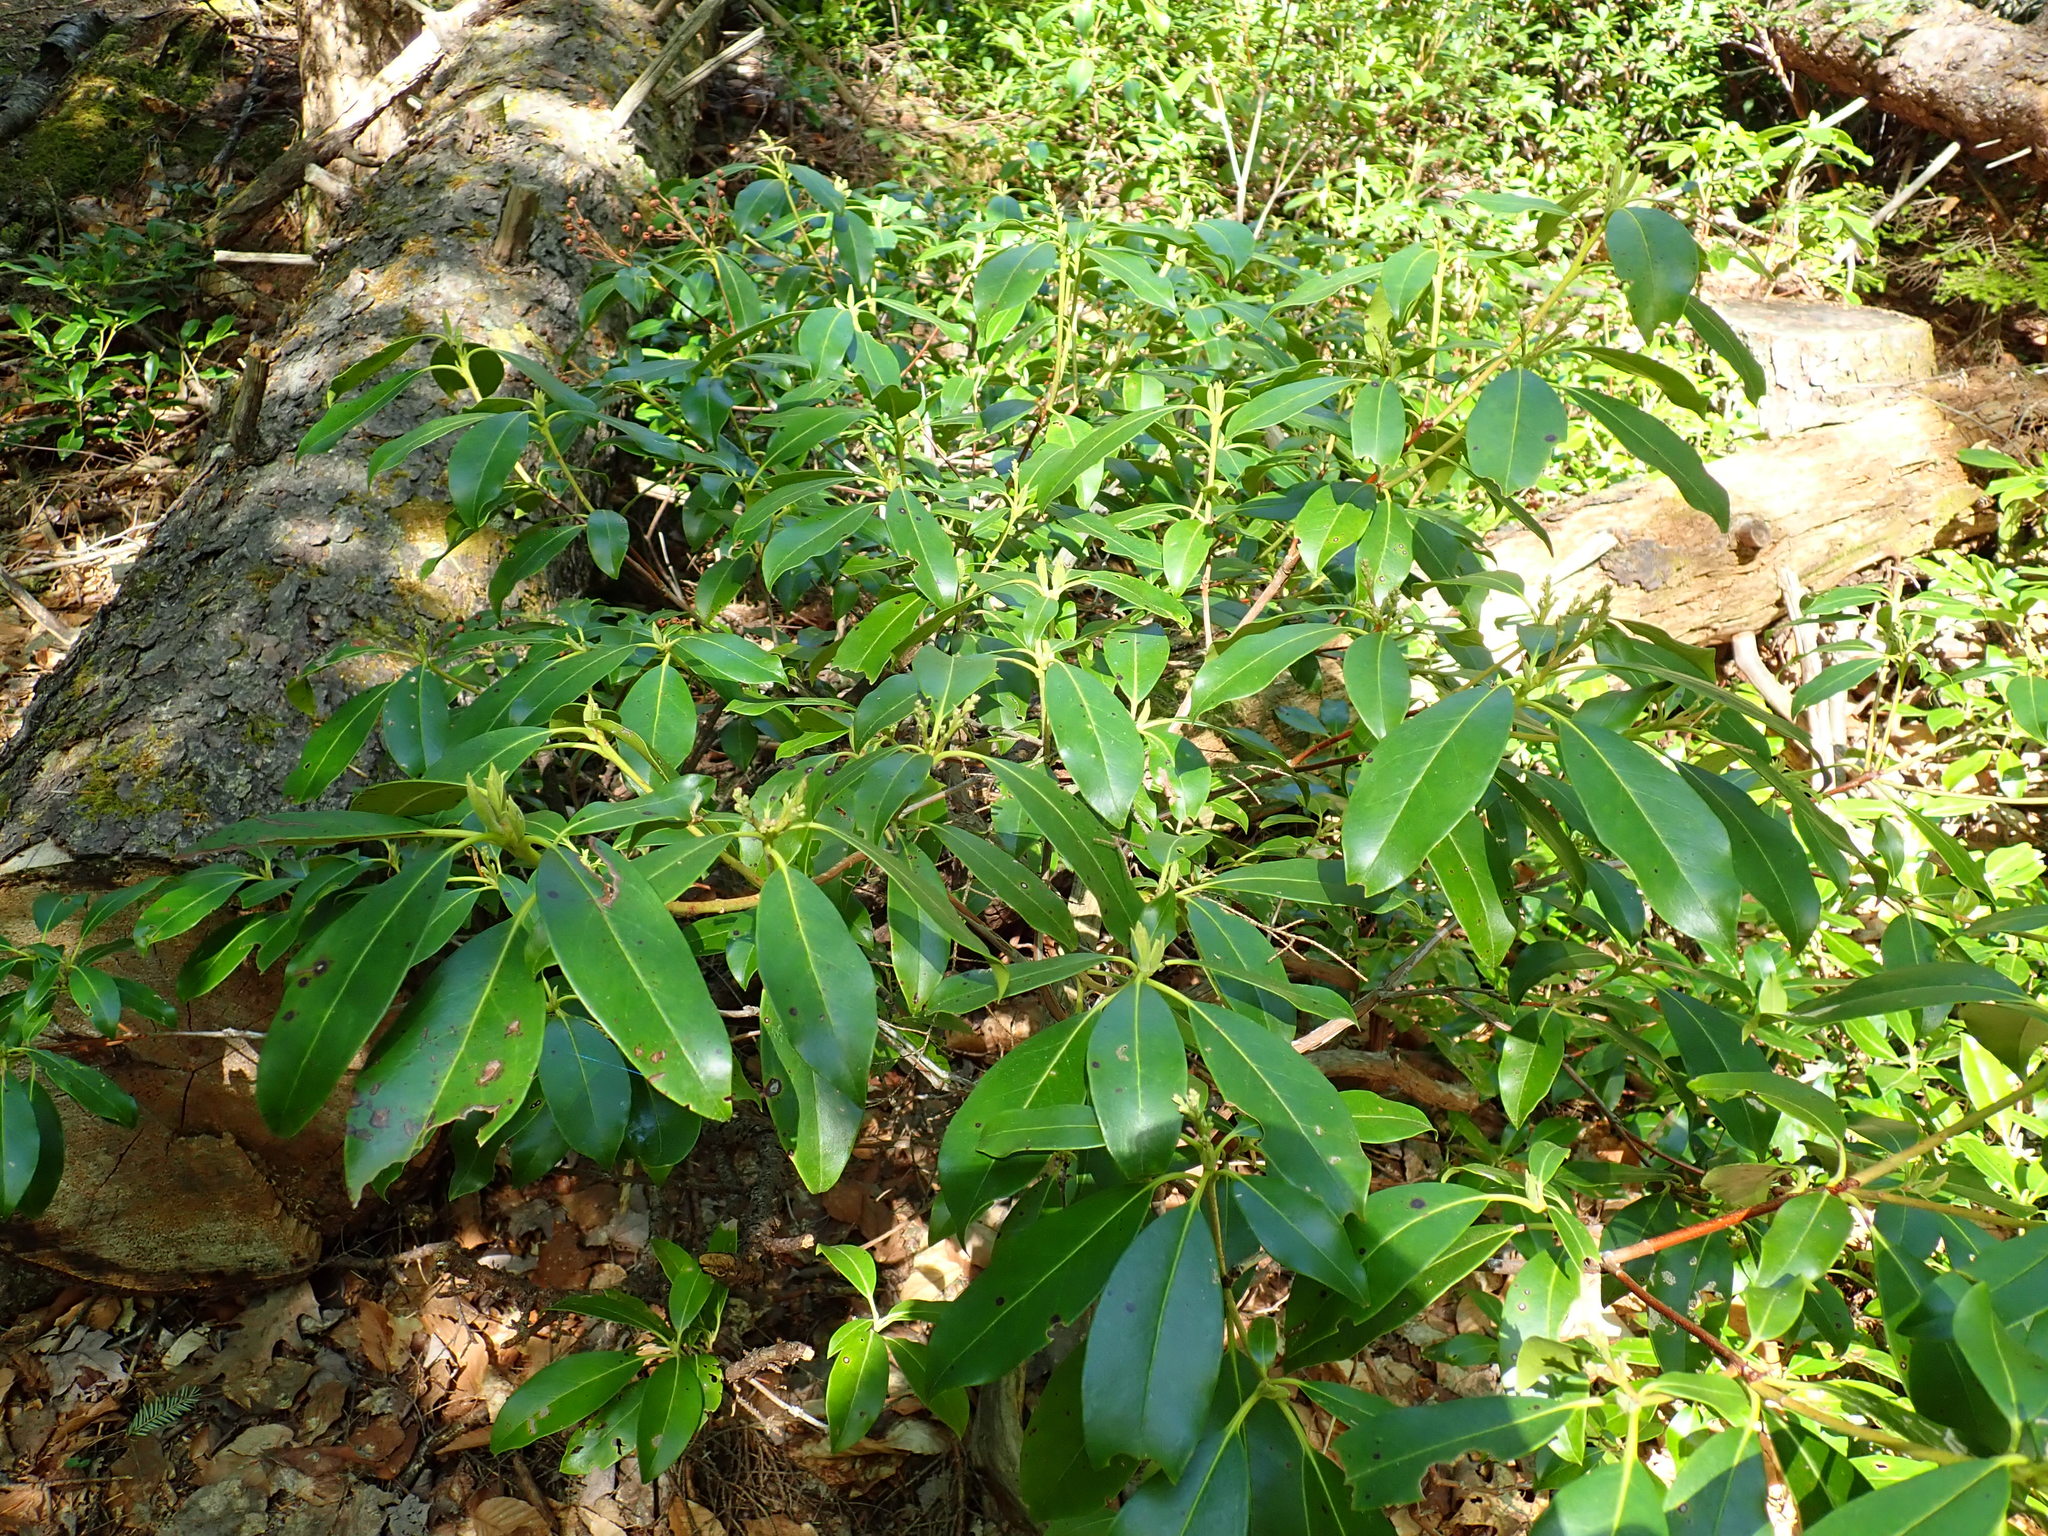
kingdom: Plantae
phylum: Tracheophyta
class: Magnoliopsida
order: Ericales
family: Ericaceae
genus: Kalmia
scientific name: Kalmia latifolia
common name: Mountain-laurel
